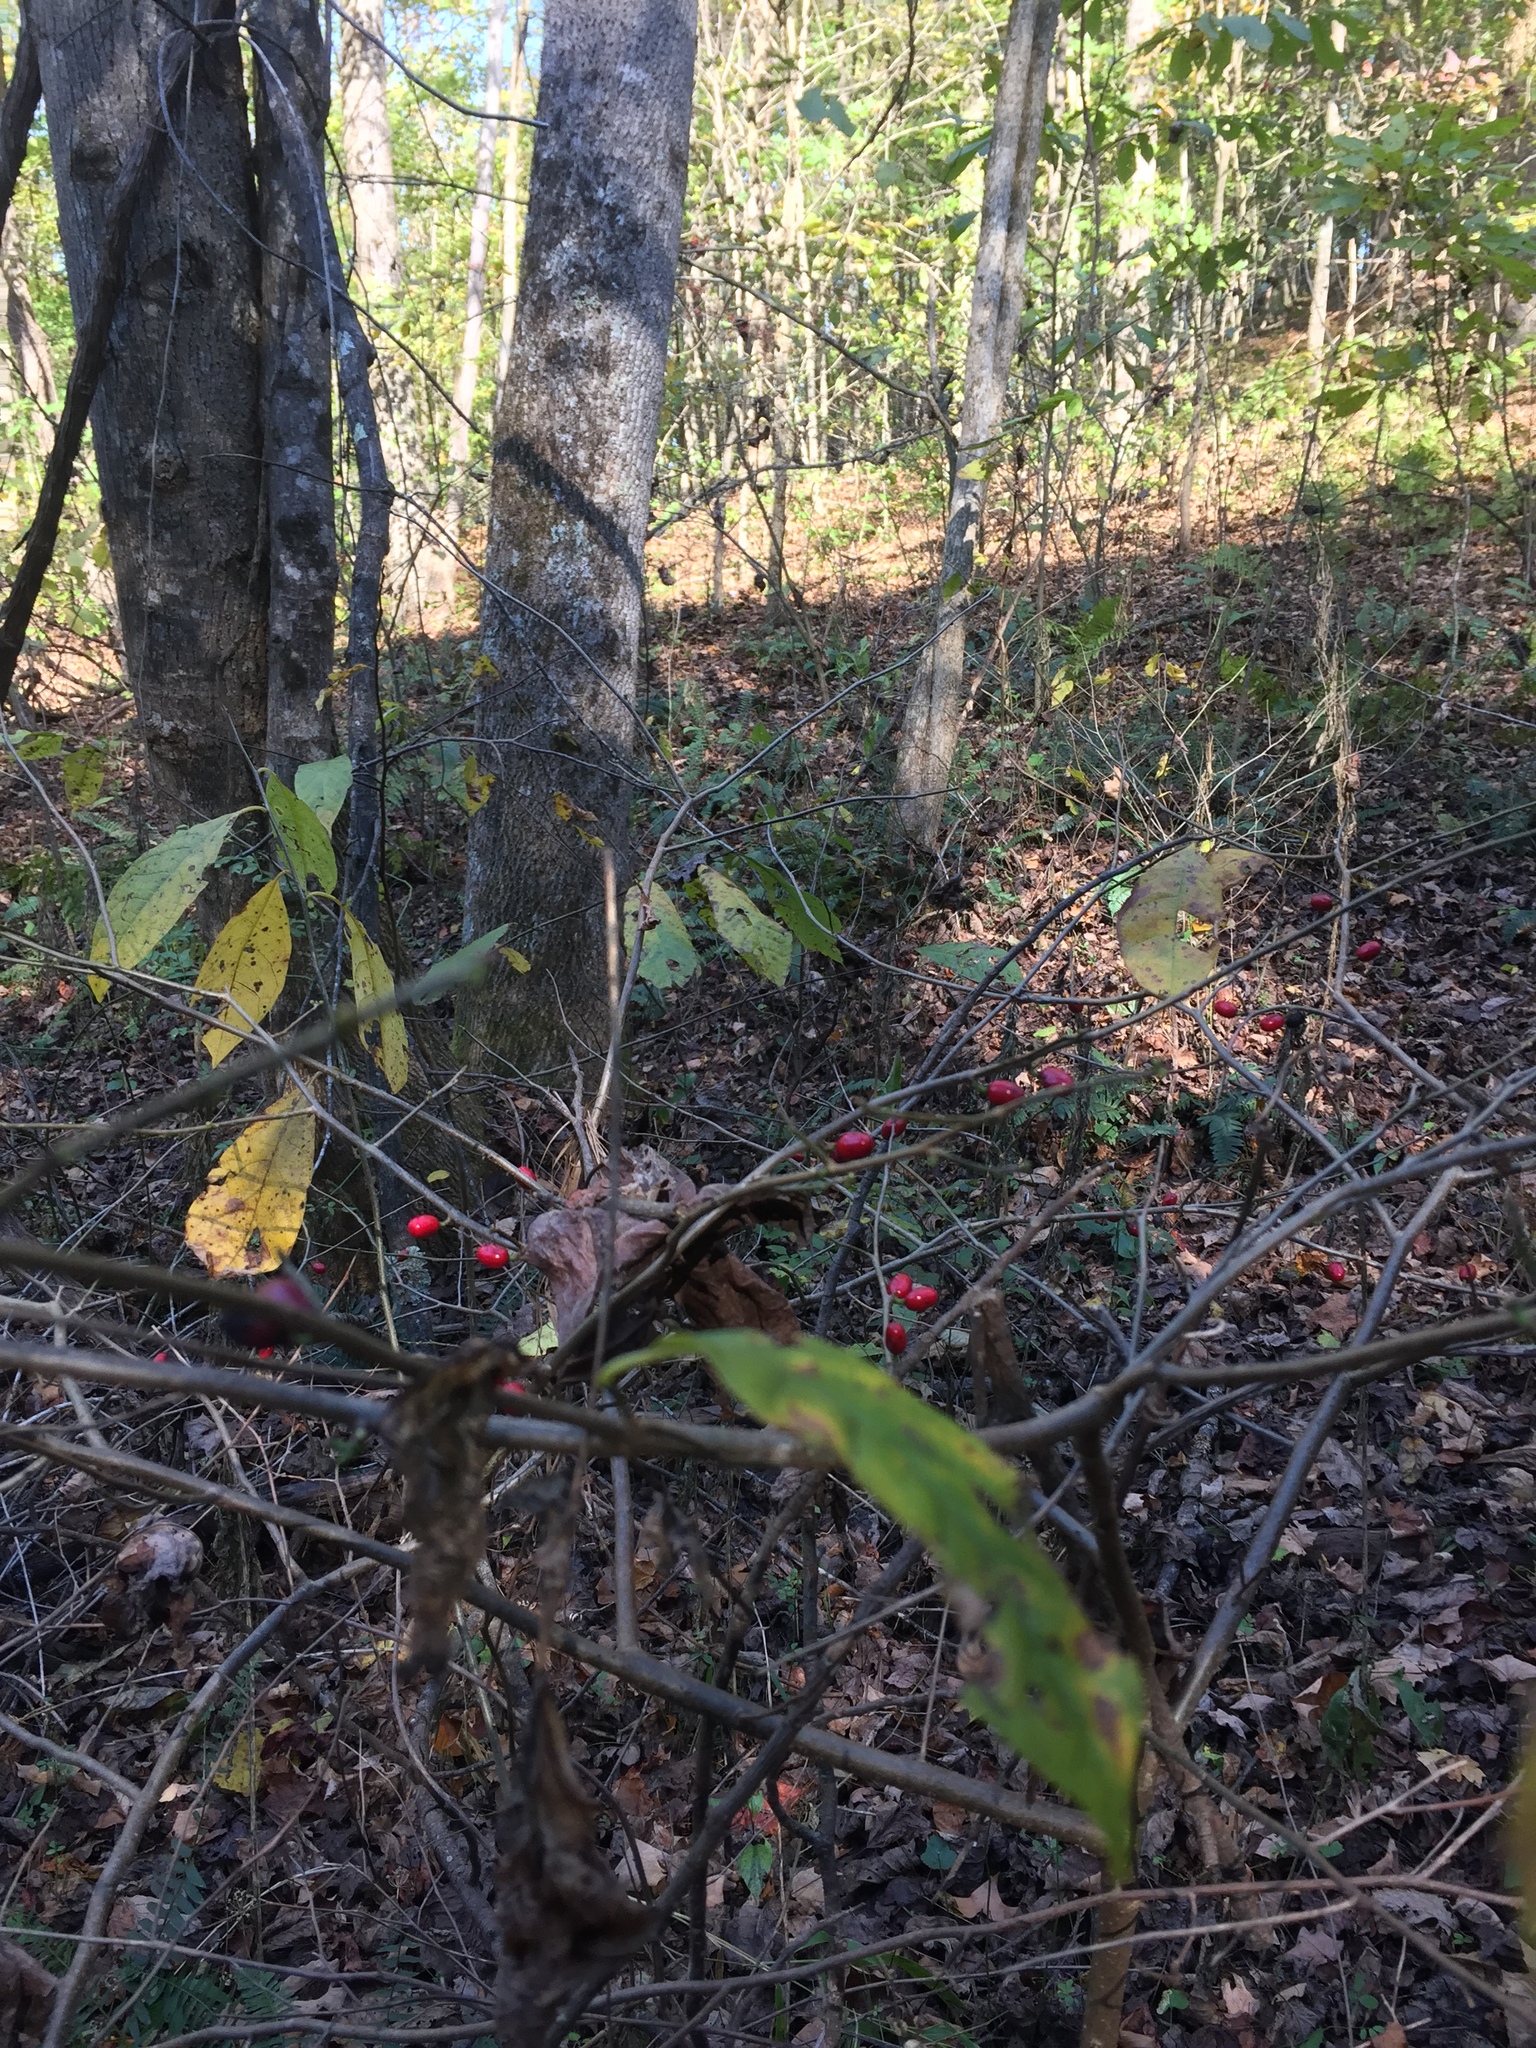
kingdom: Plantae
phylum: Tracheophyta
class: Magnoliopsida
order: Laurales
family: Lauraceae
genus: Lindera
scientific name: Lindera benzoin
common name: Spicebush
